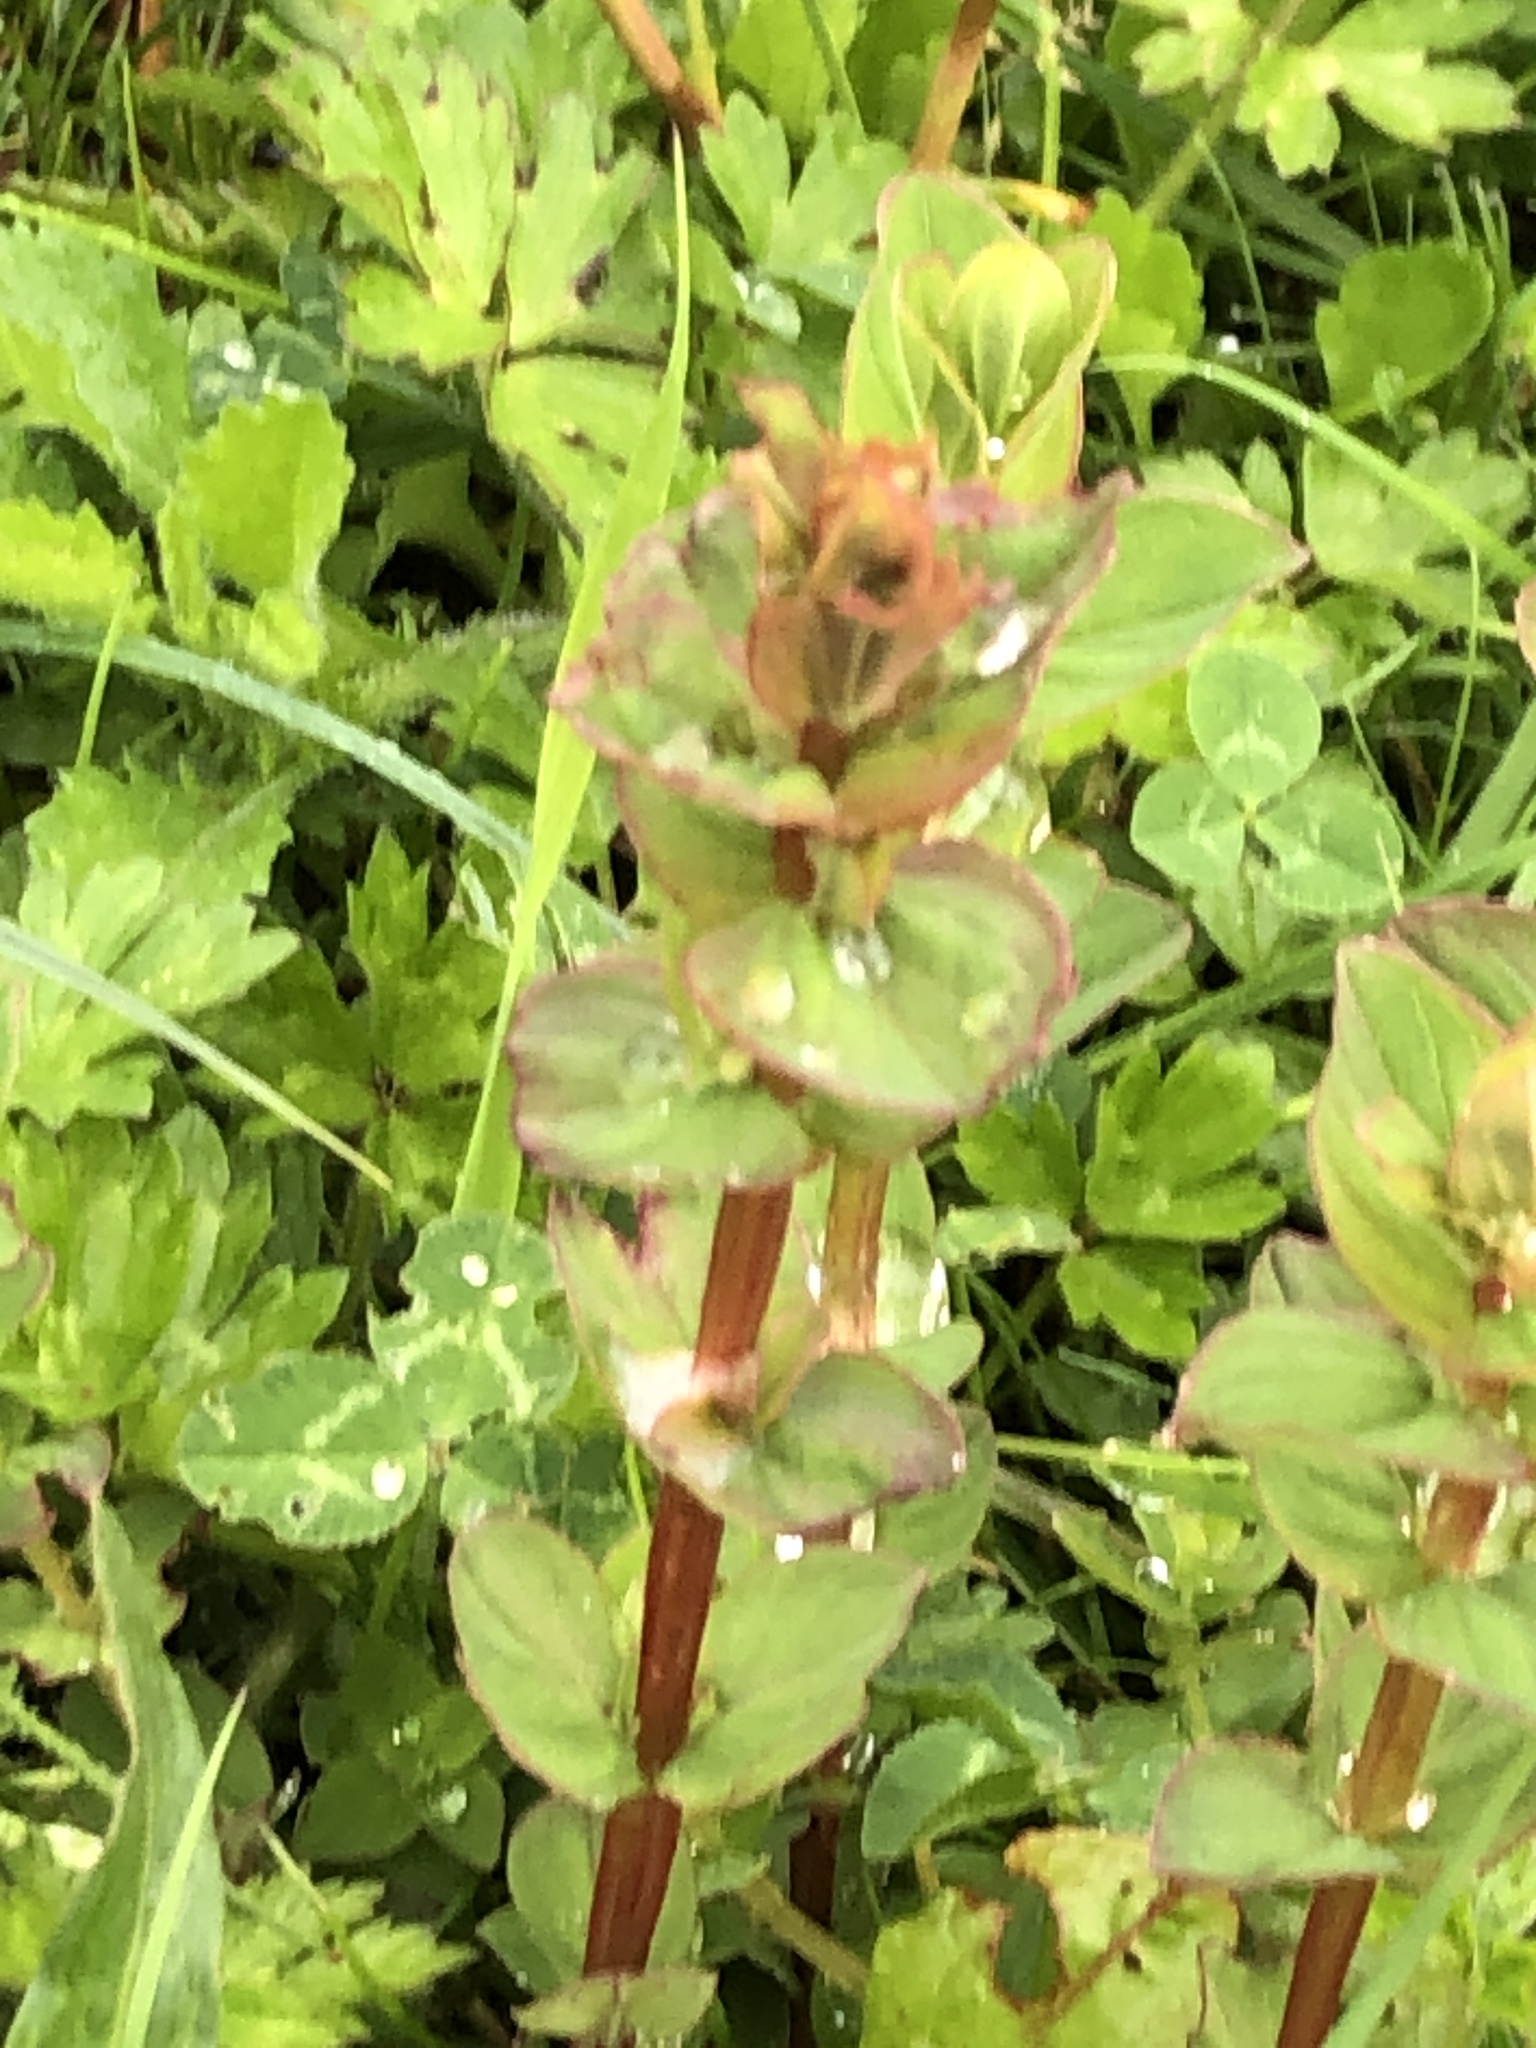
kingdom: Plantae
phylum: Tracheophyta
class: Magnoliopsida
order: Malpighiales
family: Hypericaceae
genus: Hypericum
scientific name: Hypericum tetrapterum
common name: Square-stalked st. john's-wort
